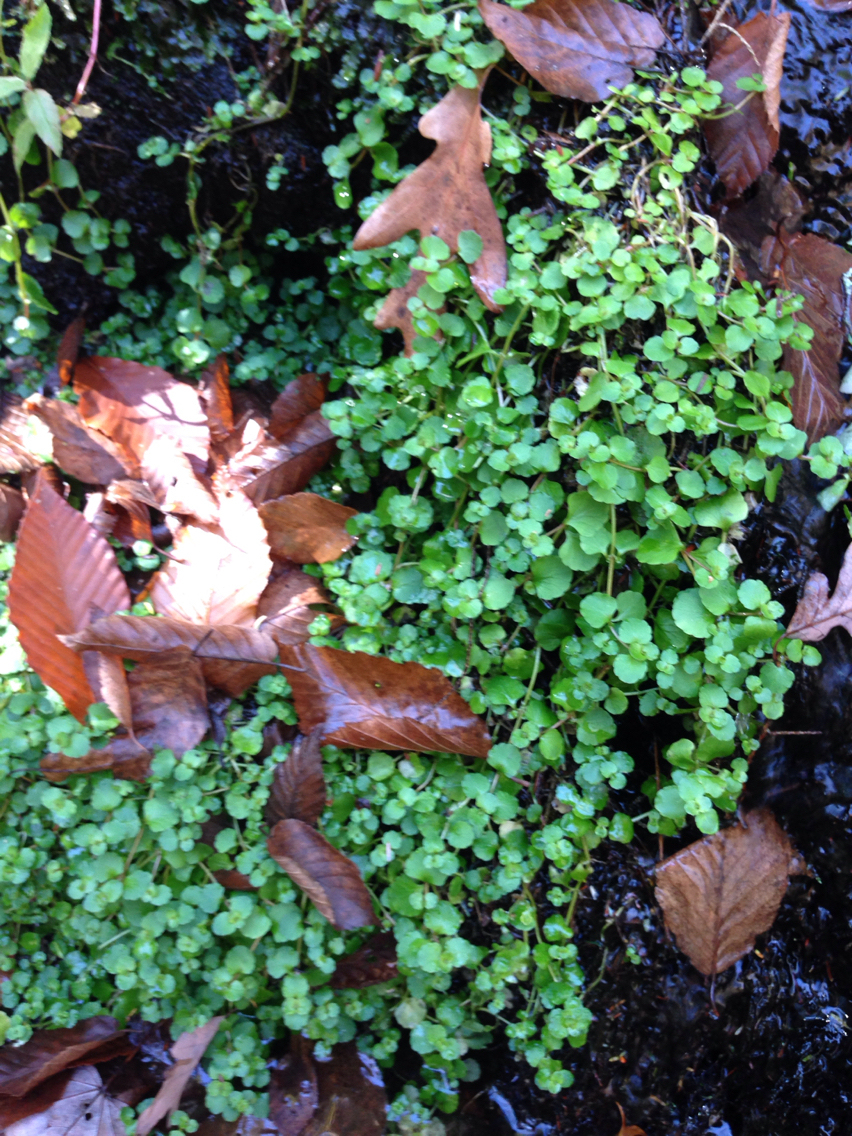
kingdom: Plantae
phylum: Tracheophyta
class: Magnoliopsida
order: Saxifragales
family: Saxifragaceae
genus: Chrysosplenium
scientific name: Chrysosplenium americanum
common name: American golden-saxifrage
